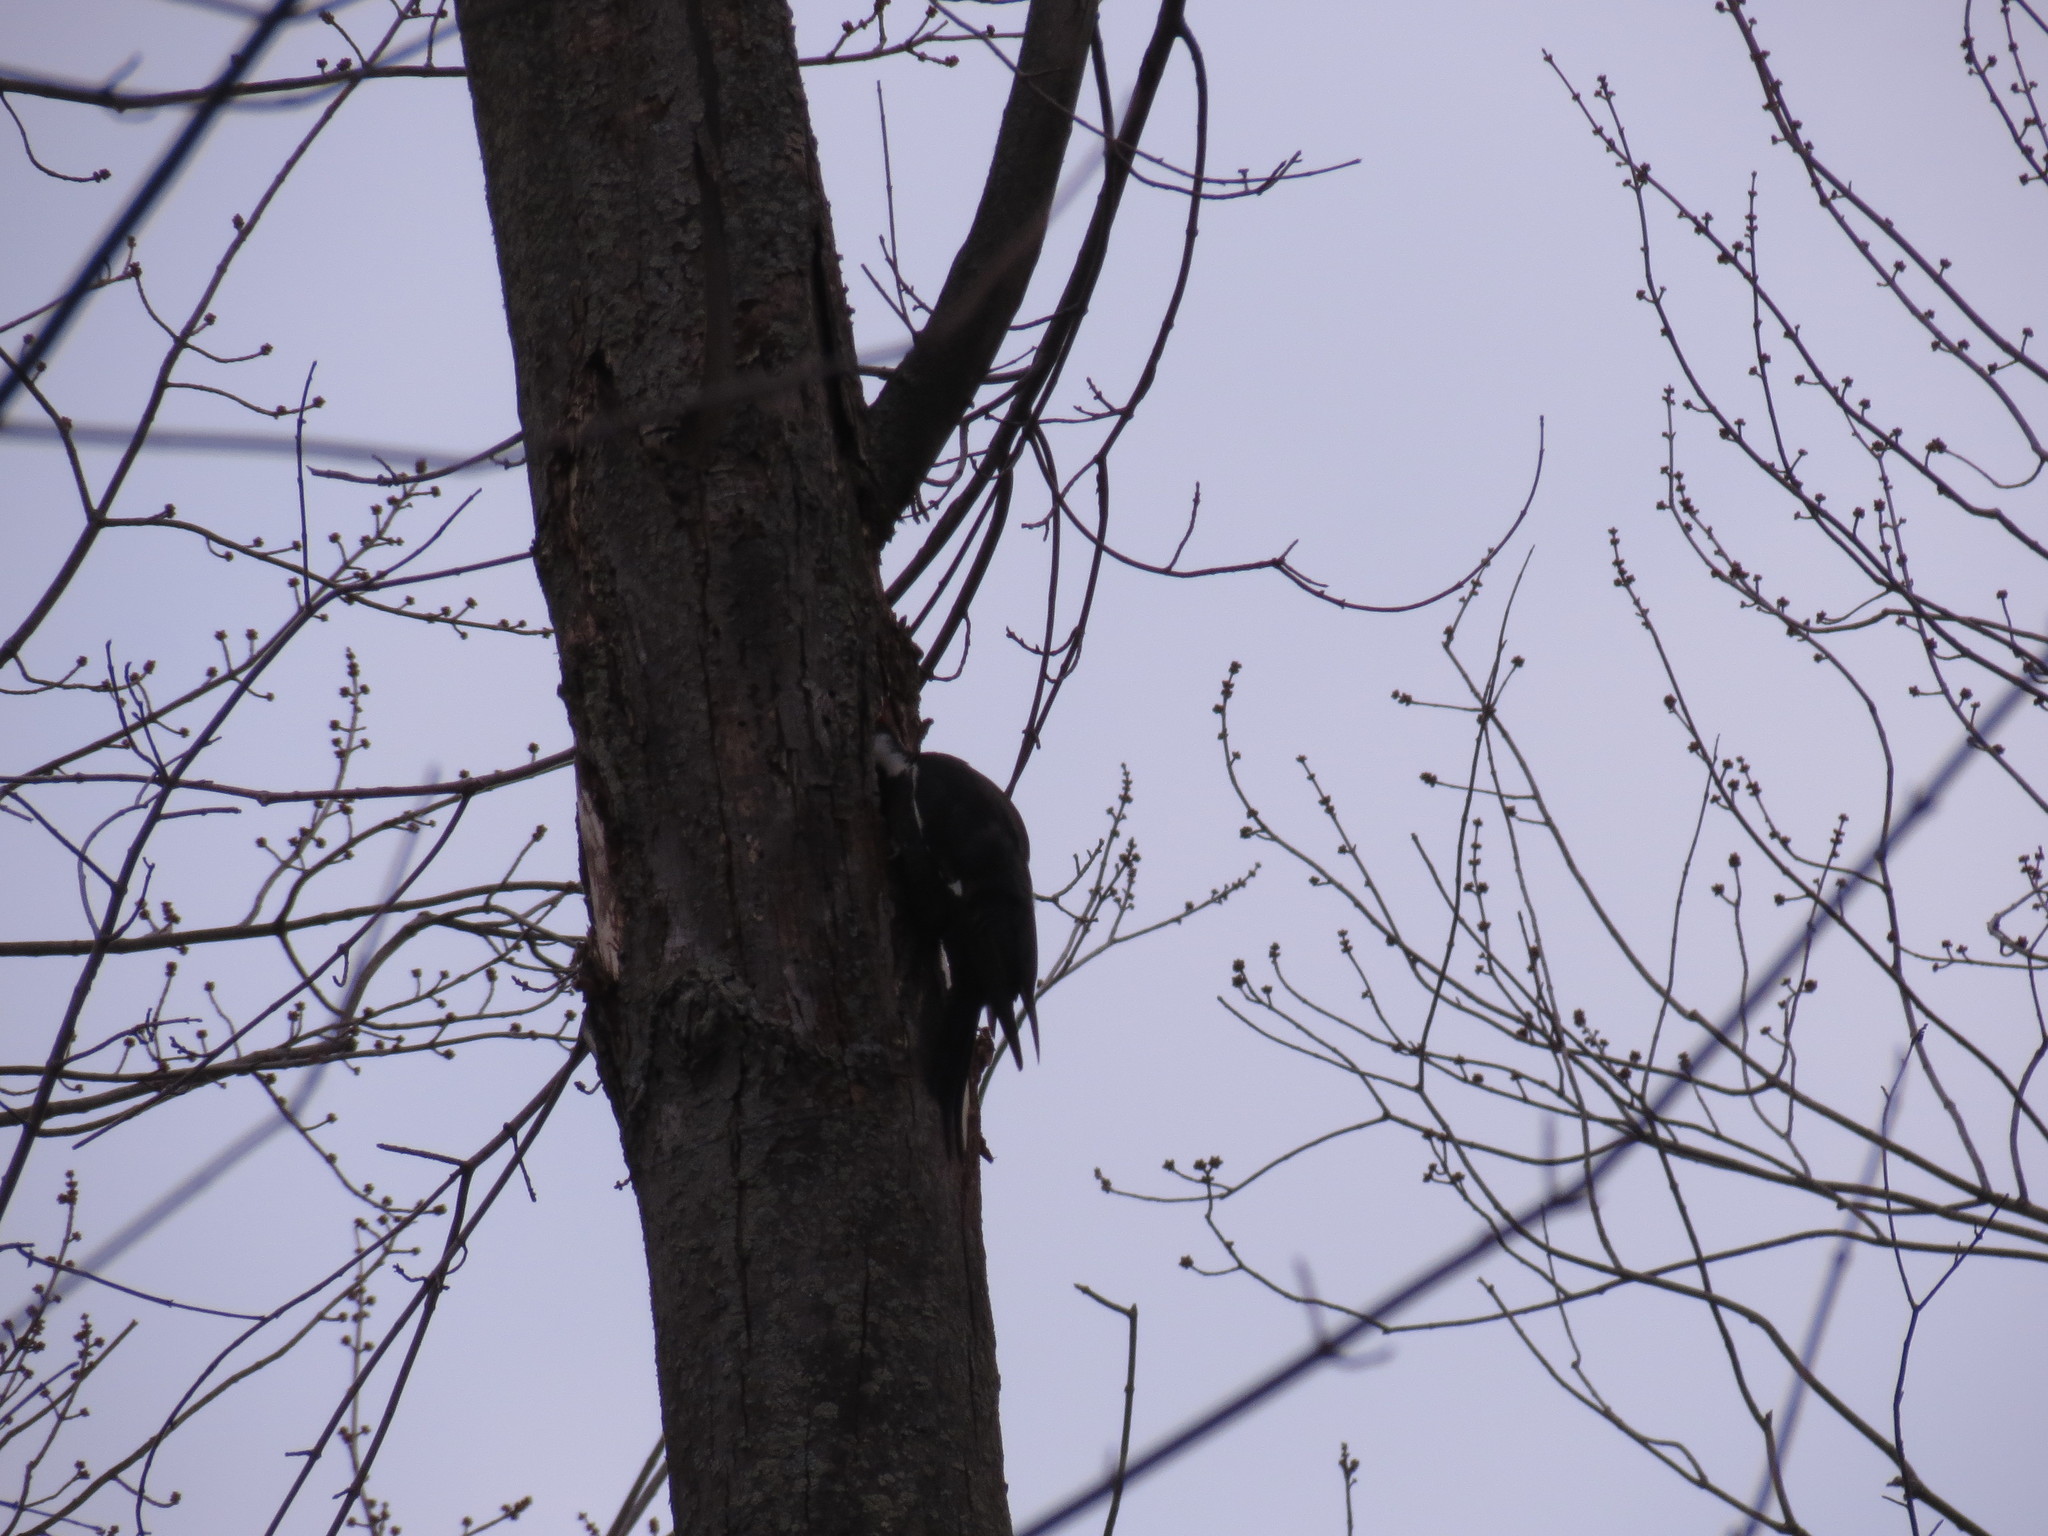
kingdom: Animalia
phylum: Chordata
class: Aves
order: Piciformes
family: Picidae
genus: Dryocopus
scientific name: Dryocopus pileatus
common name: Pileated woodpecker
